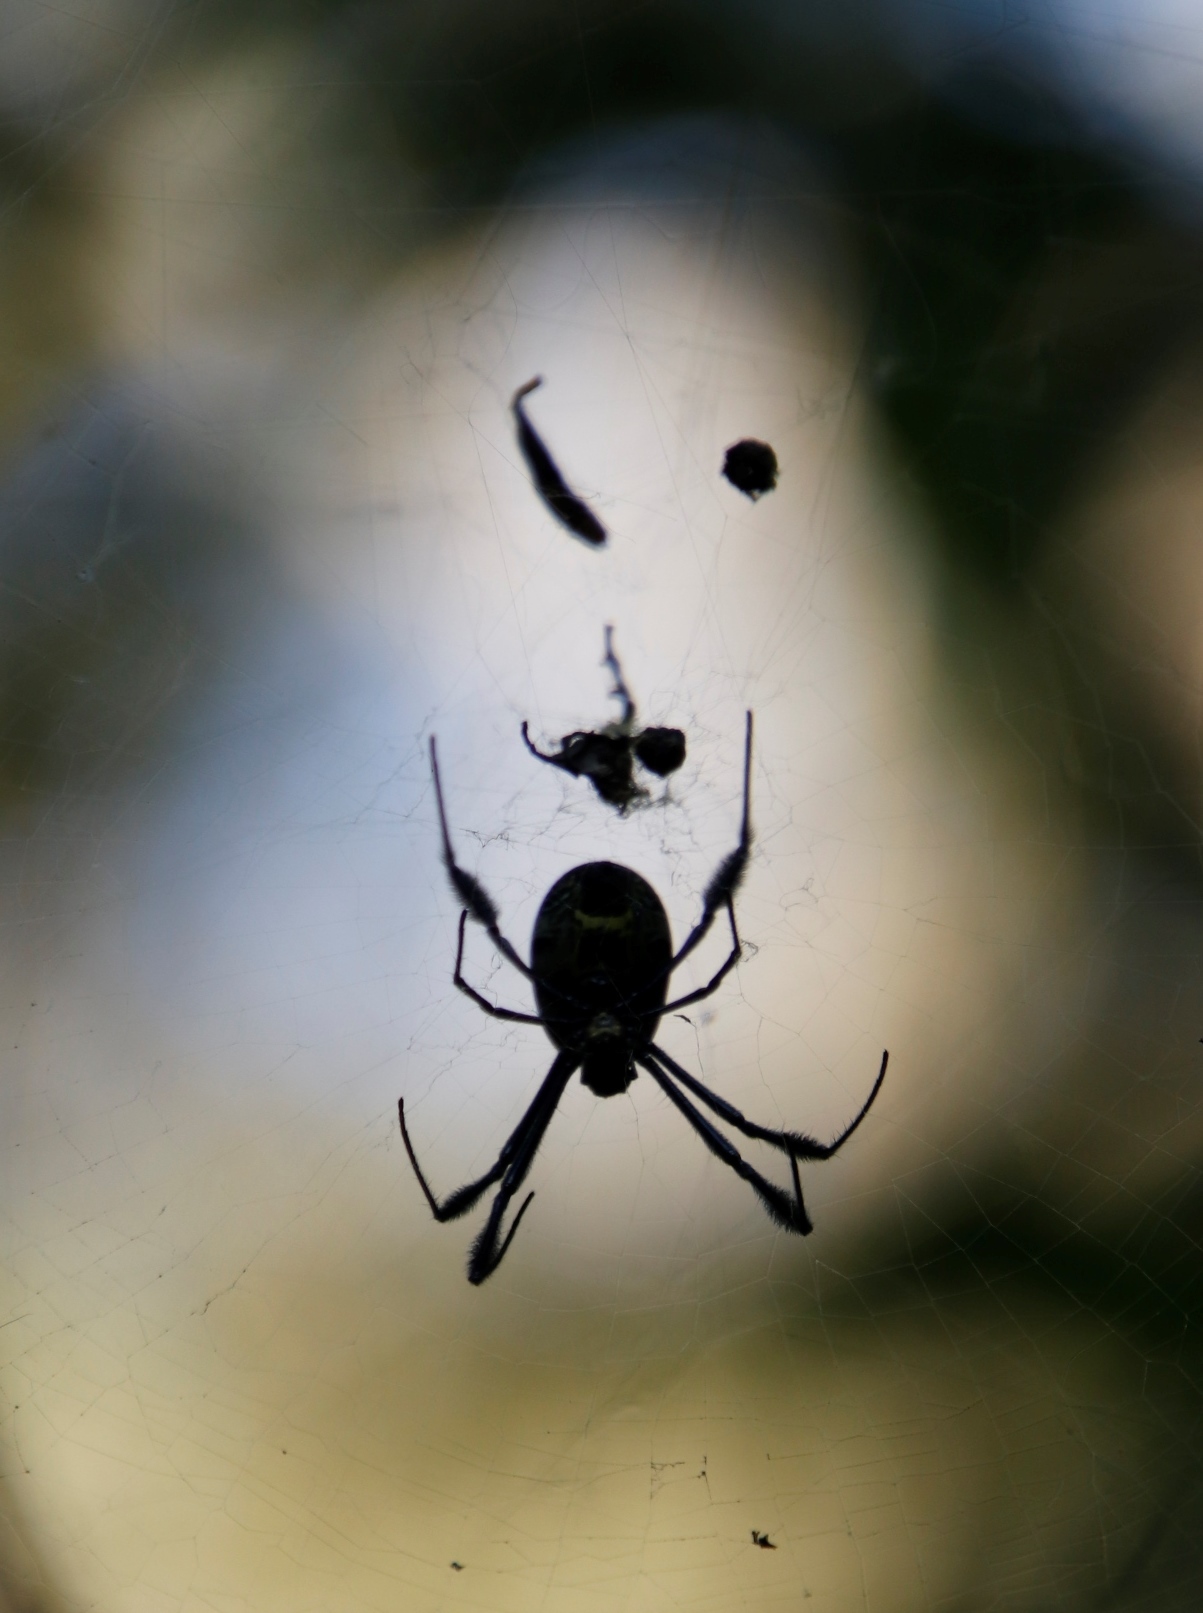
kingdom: Animalia
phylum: Arthropoda
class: Arachnida
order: Araneae
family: Araneidae
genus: Trichonephila
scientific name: Trichonephila fenestrata
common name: Hairy golden orb weaver
